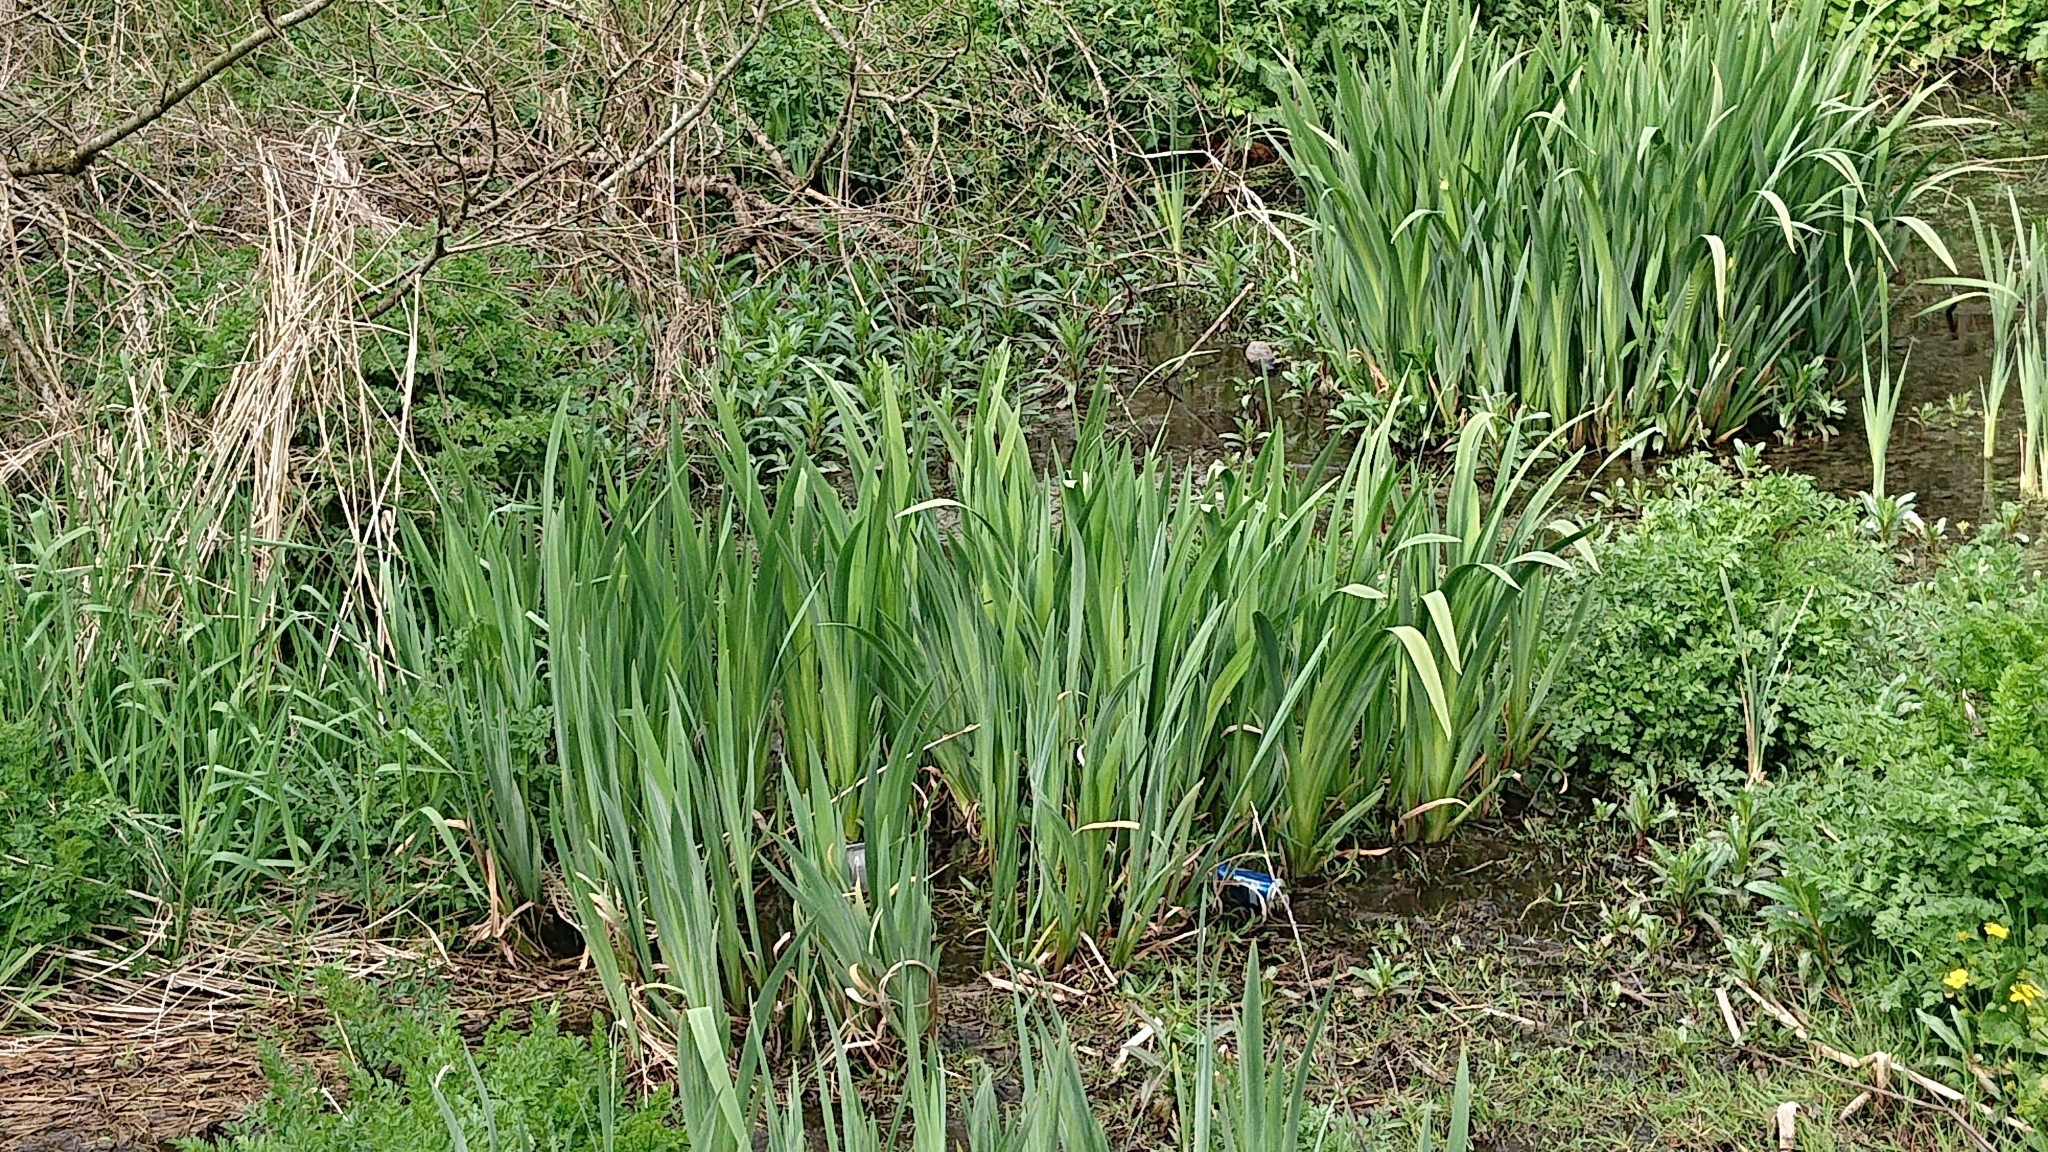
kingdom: Plantae
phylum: Tracheophyta
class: Liliopsida
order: Asparagales
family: Iridaceae
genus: Iris
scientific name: Iris pseudacorus
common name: Yellow flag
